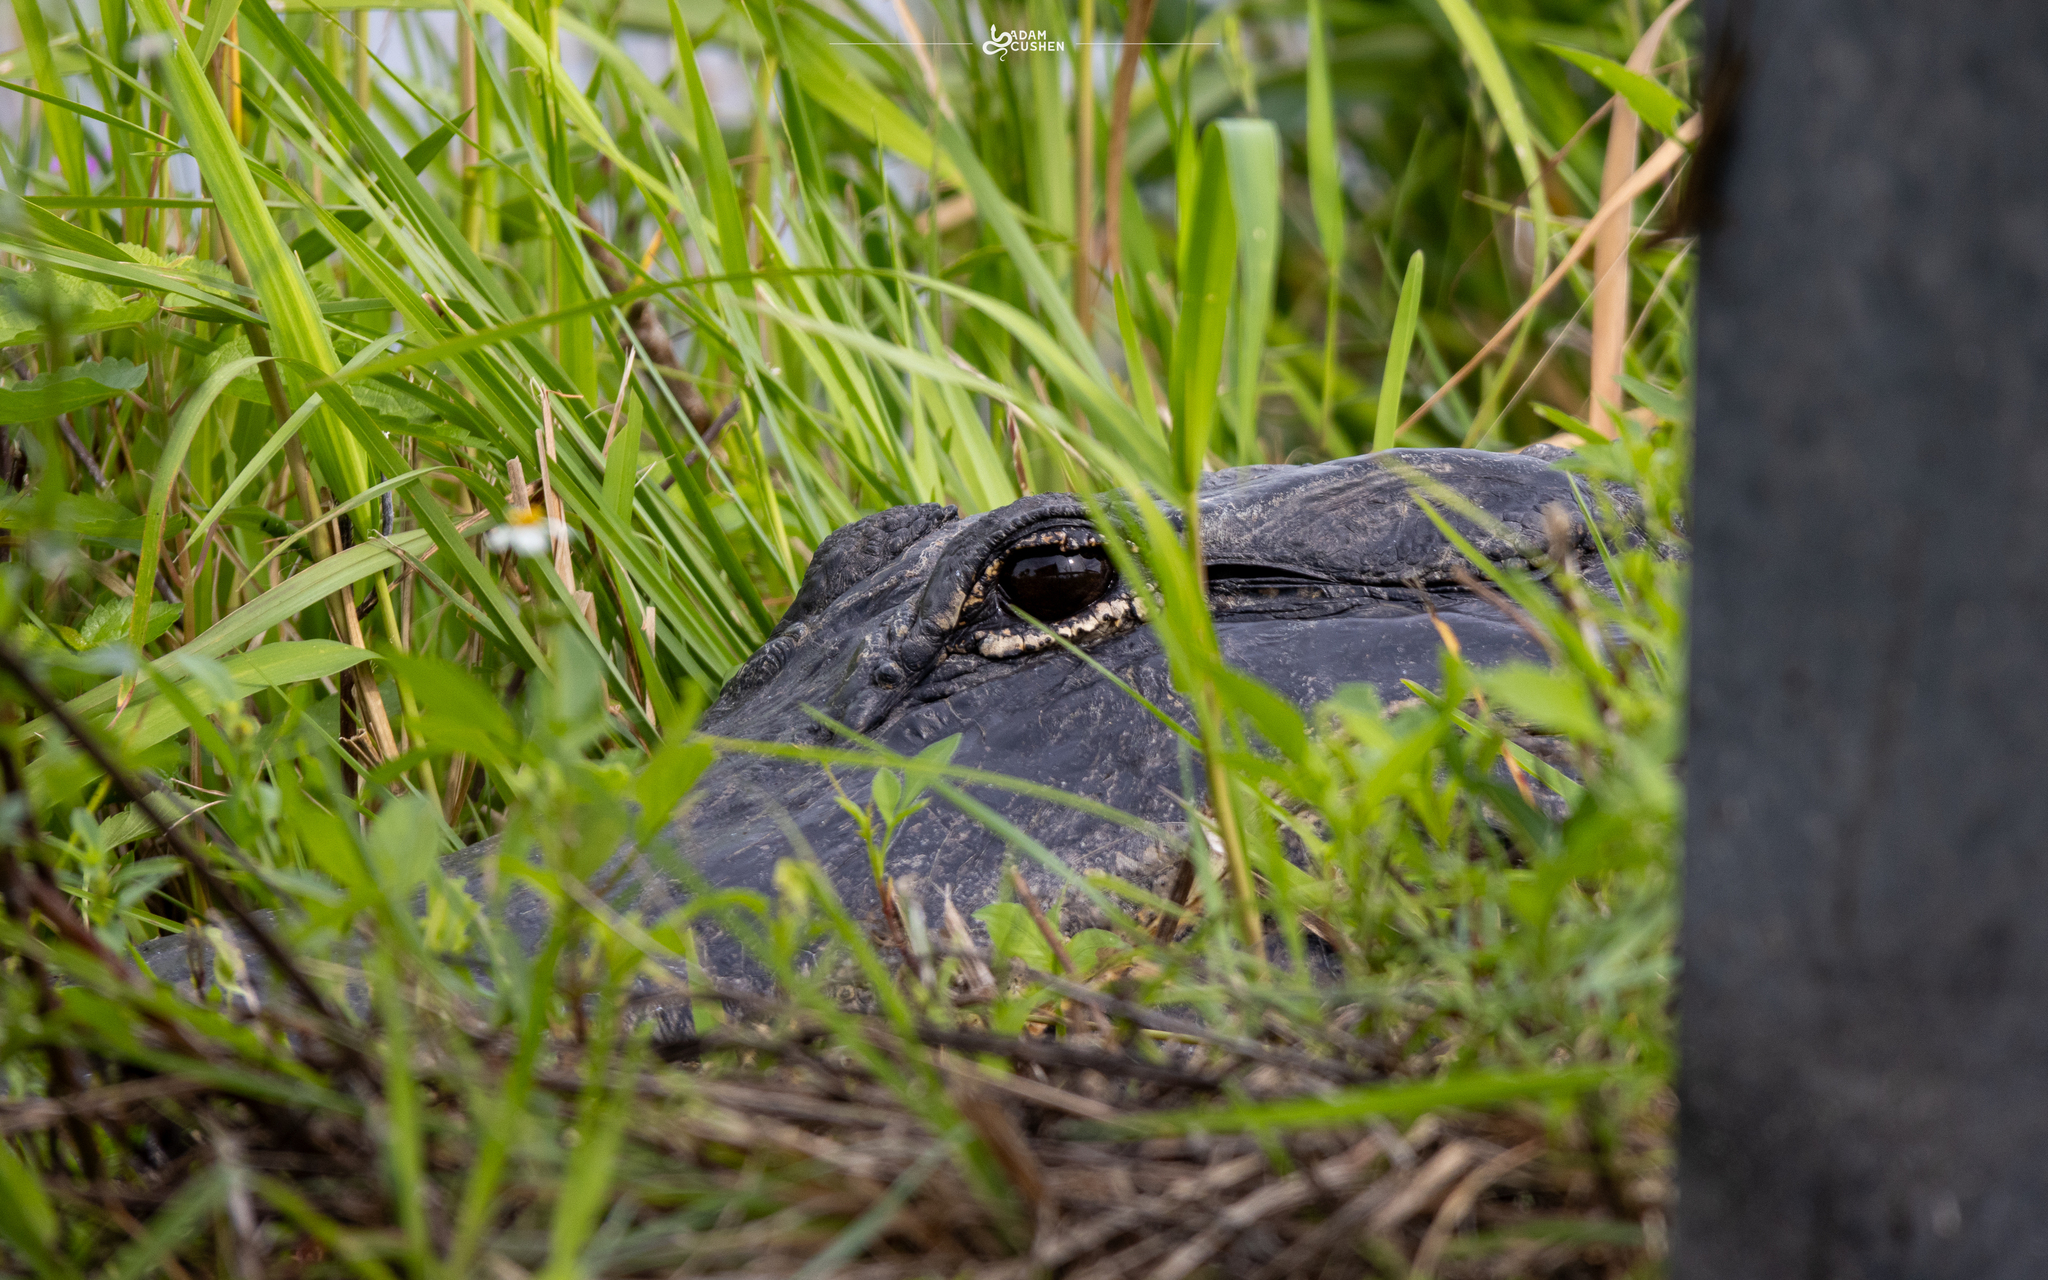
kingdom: Animalia
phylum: Chordata
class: Crocodylia
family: Alligatoridae
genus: Alligator
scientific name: Alligator mississippiensis
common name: American alligator
